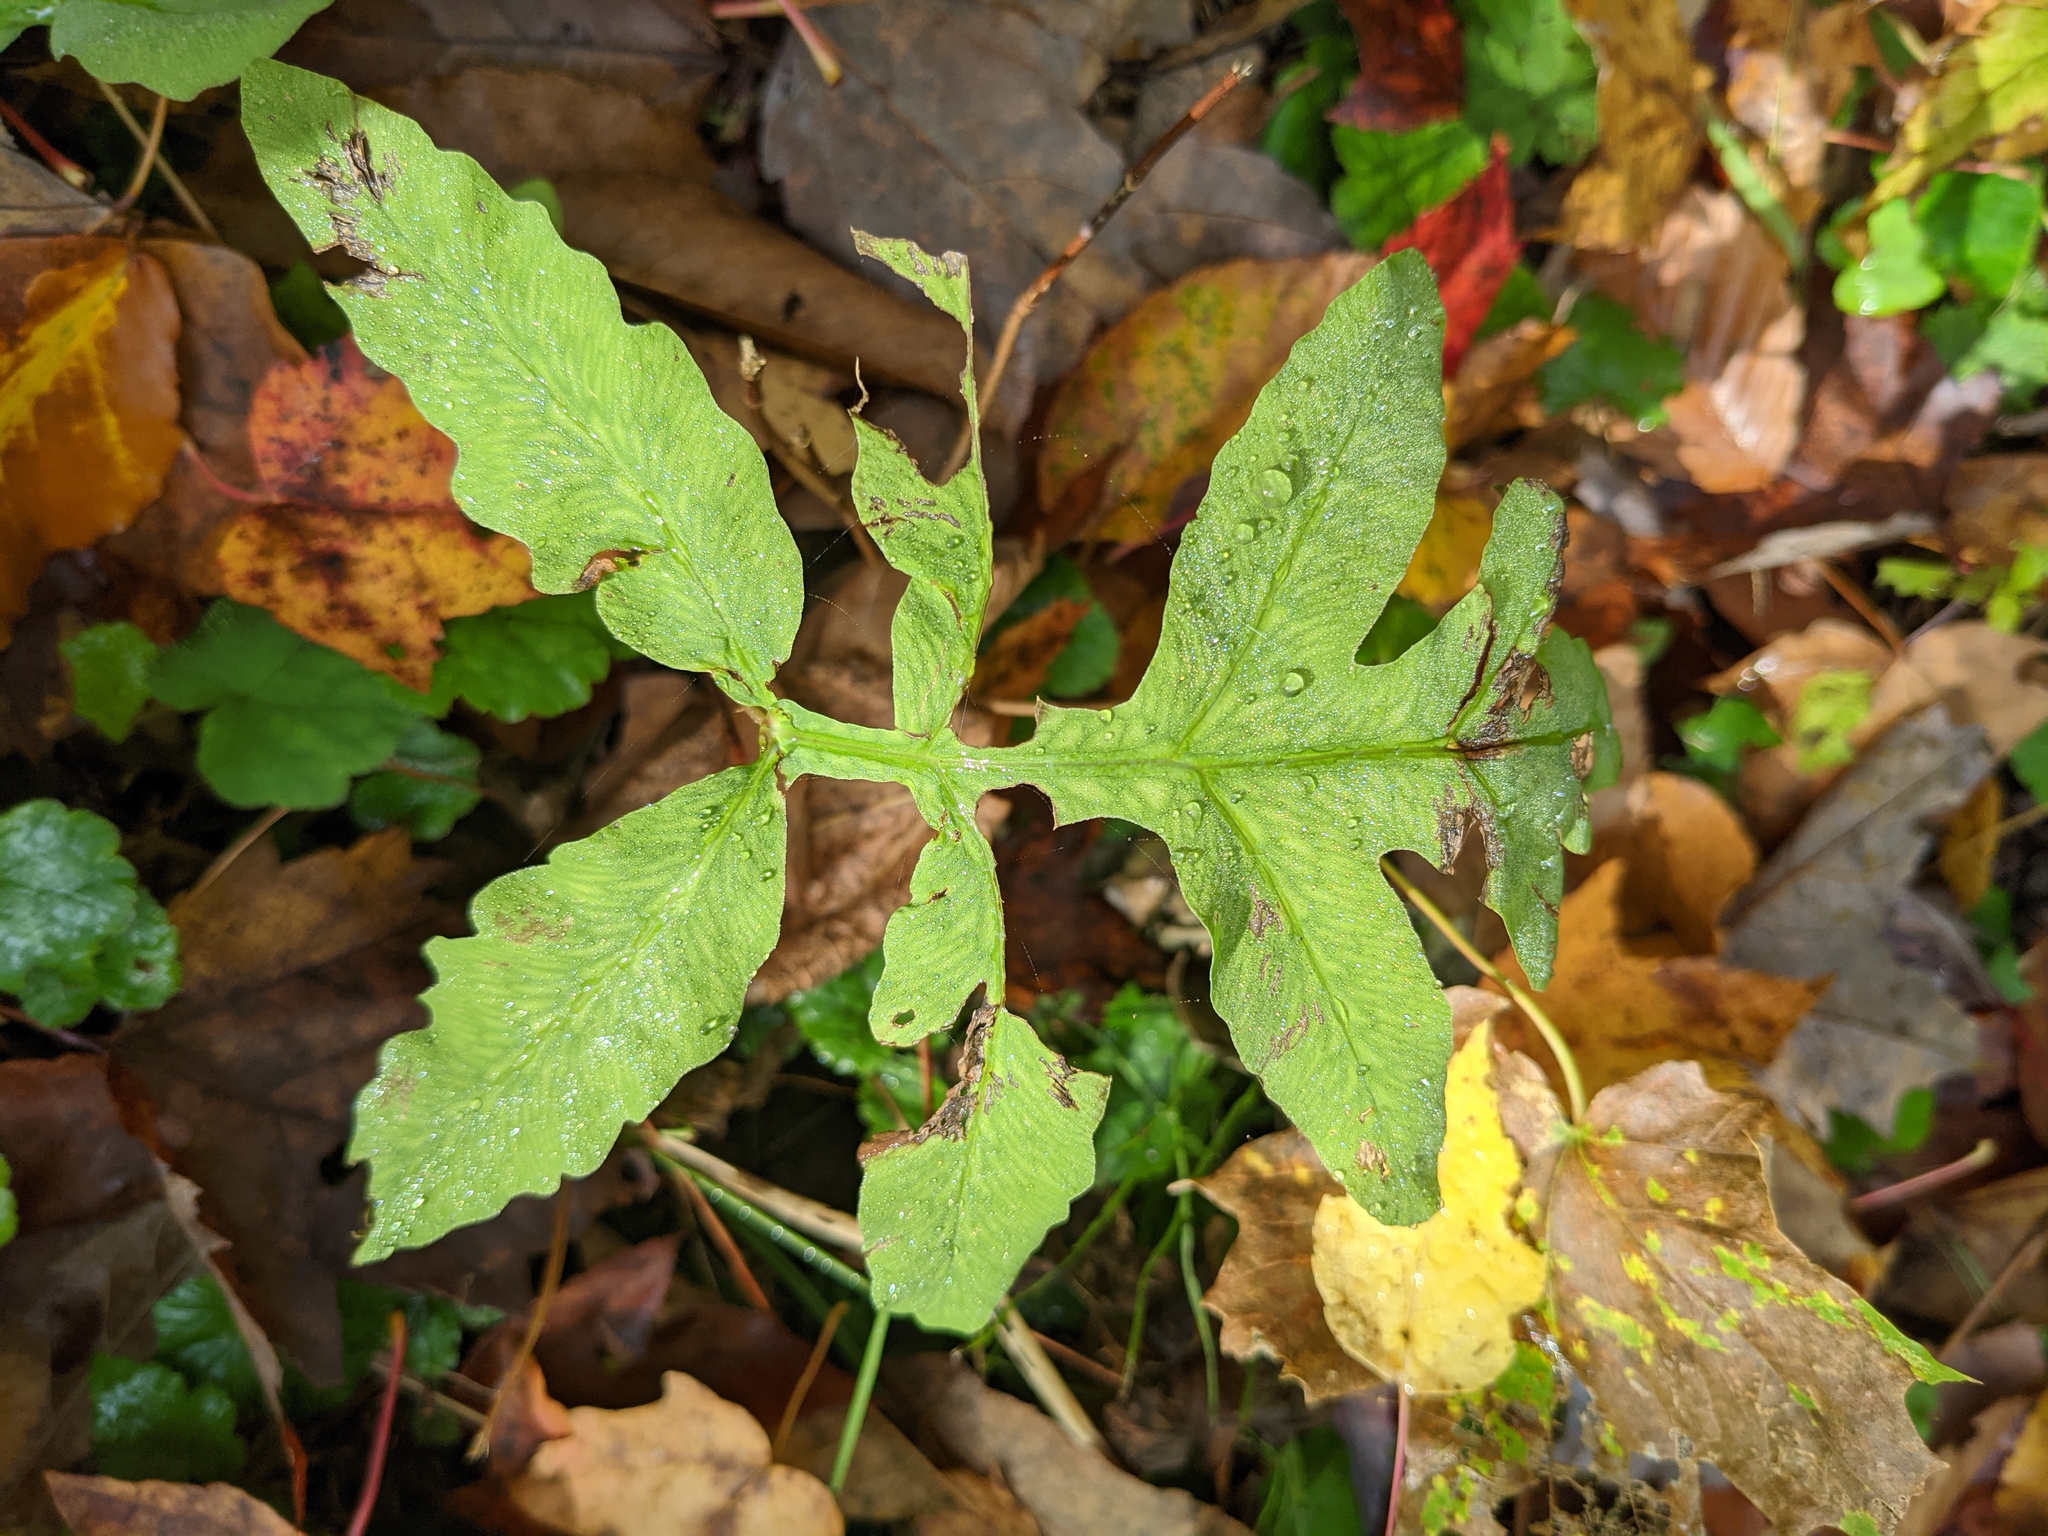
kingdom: Plantae
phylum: Tracheophyta
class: Polypodiopsida
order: Polypodiales
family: Onocleaceae
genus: Onoclea
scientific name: Onoclea sensibilis
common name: Sensitive fern
